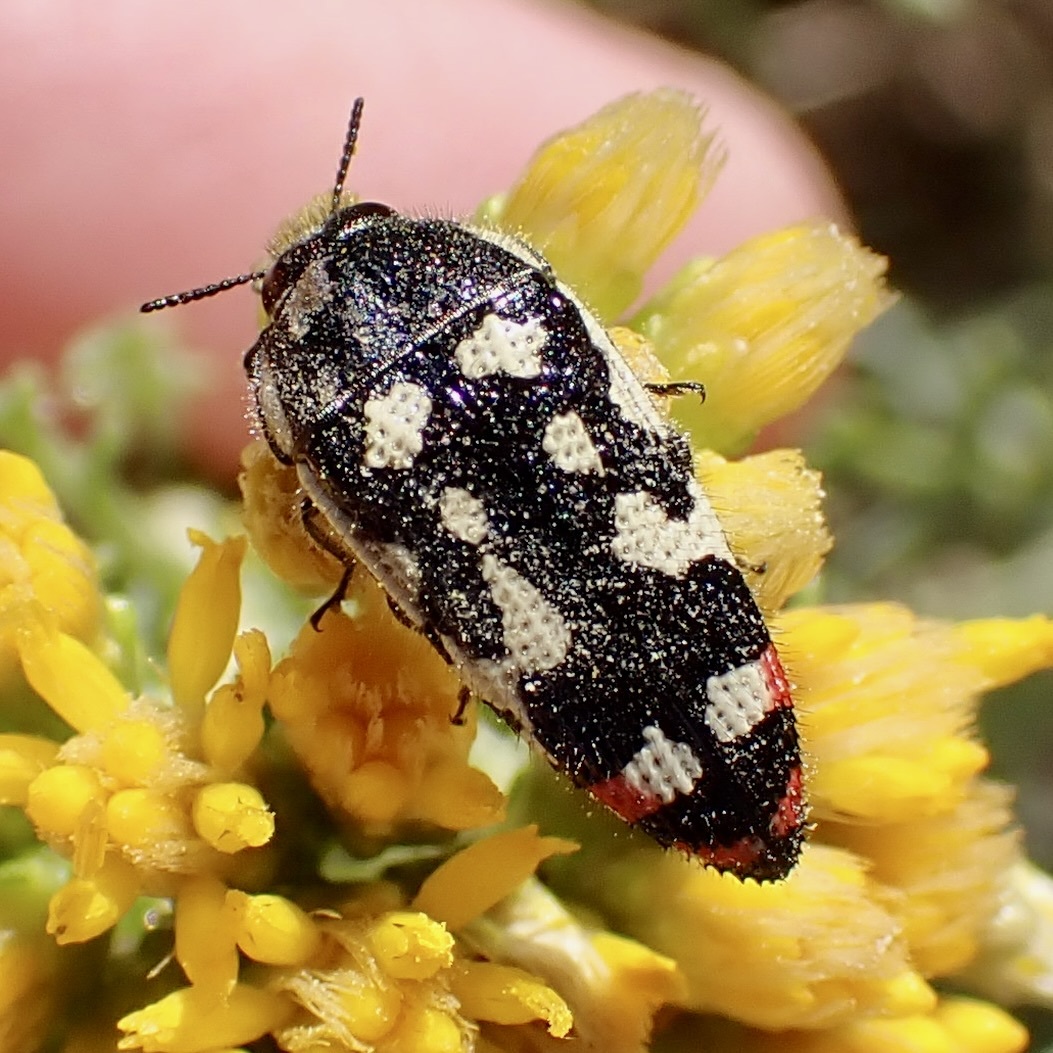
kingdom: Animalia
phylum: Arthropoda
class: Insecta
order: Coleoptera
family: Buprestidae
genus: Acmaeodera
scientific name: Acmaeodera opacula
